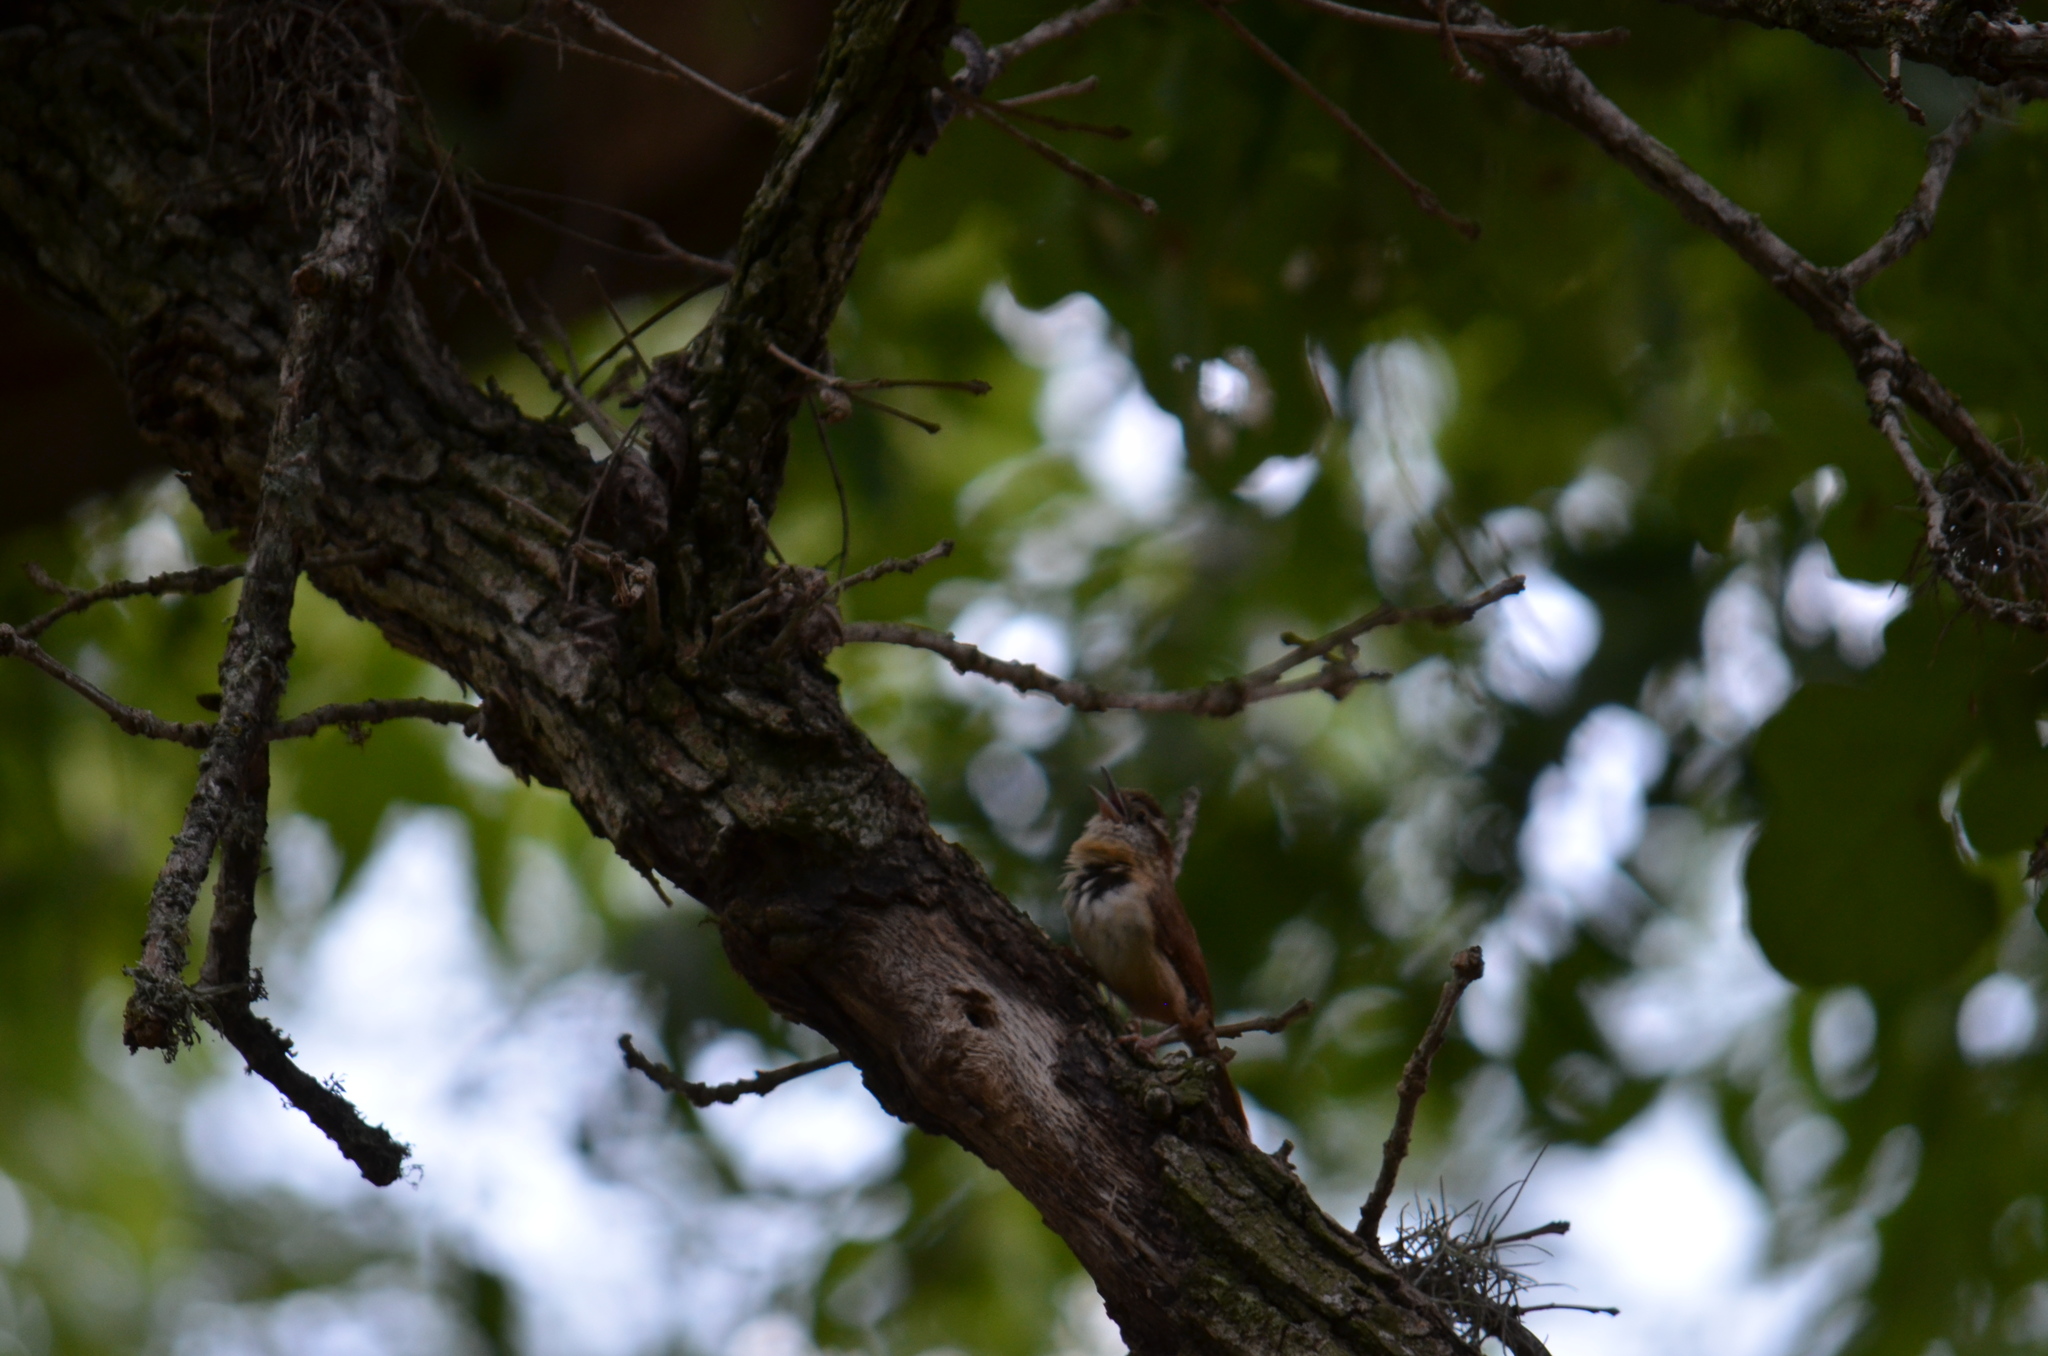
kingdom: Animalia
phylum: Chordata
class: Aves
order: Passeriformes
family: Troglodytidae
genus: Thryothorus
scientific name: Thryothorus ludovicianus
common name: Carolina wren
